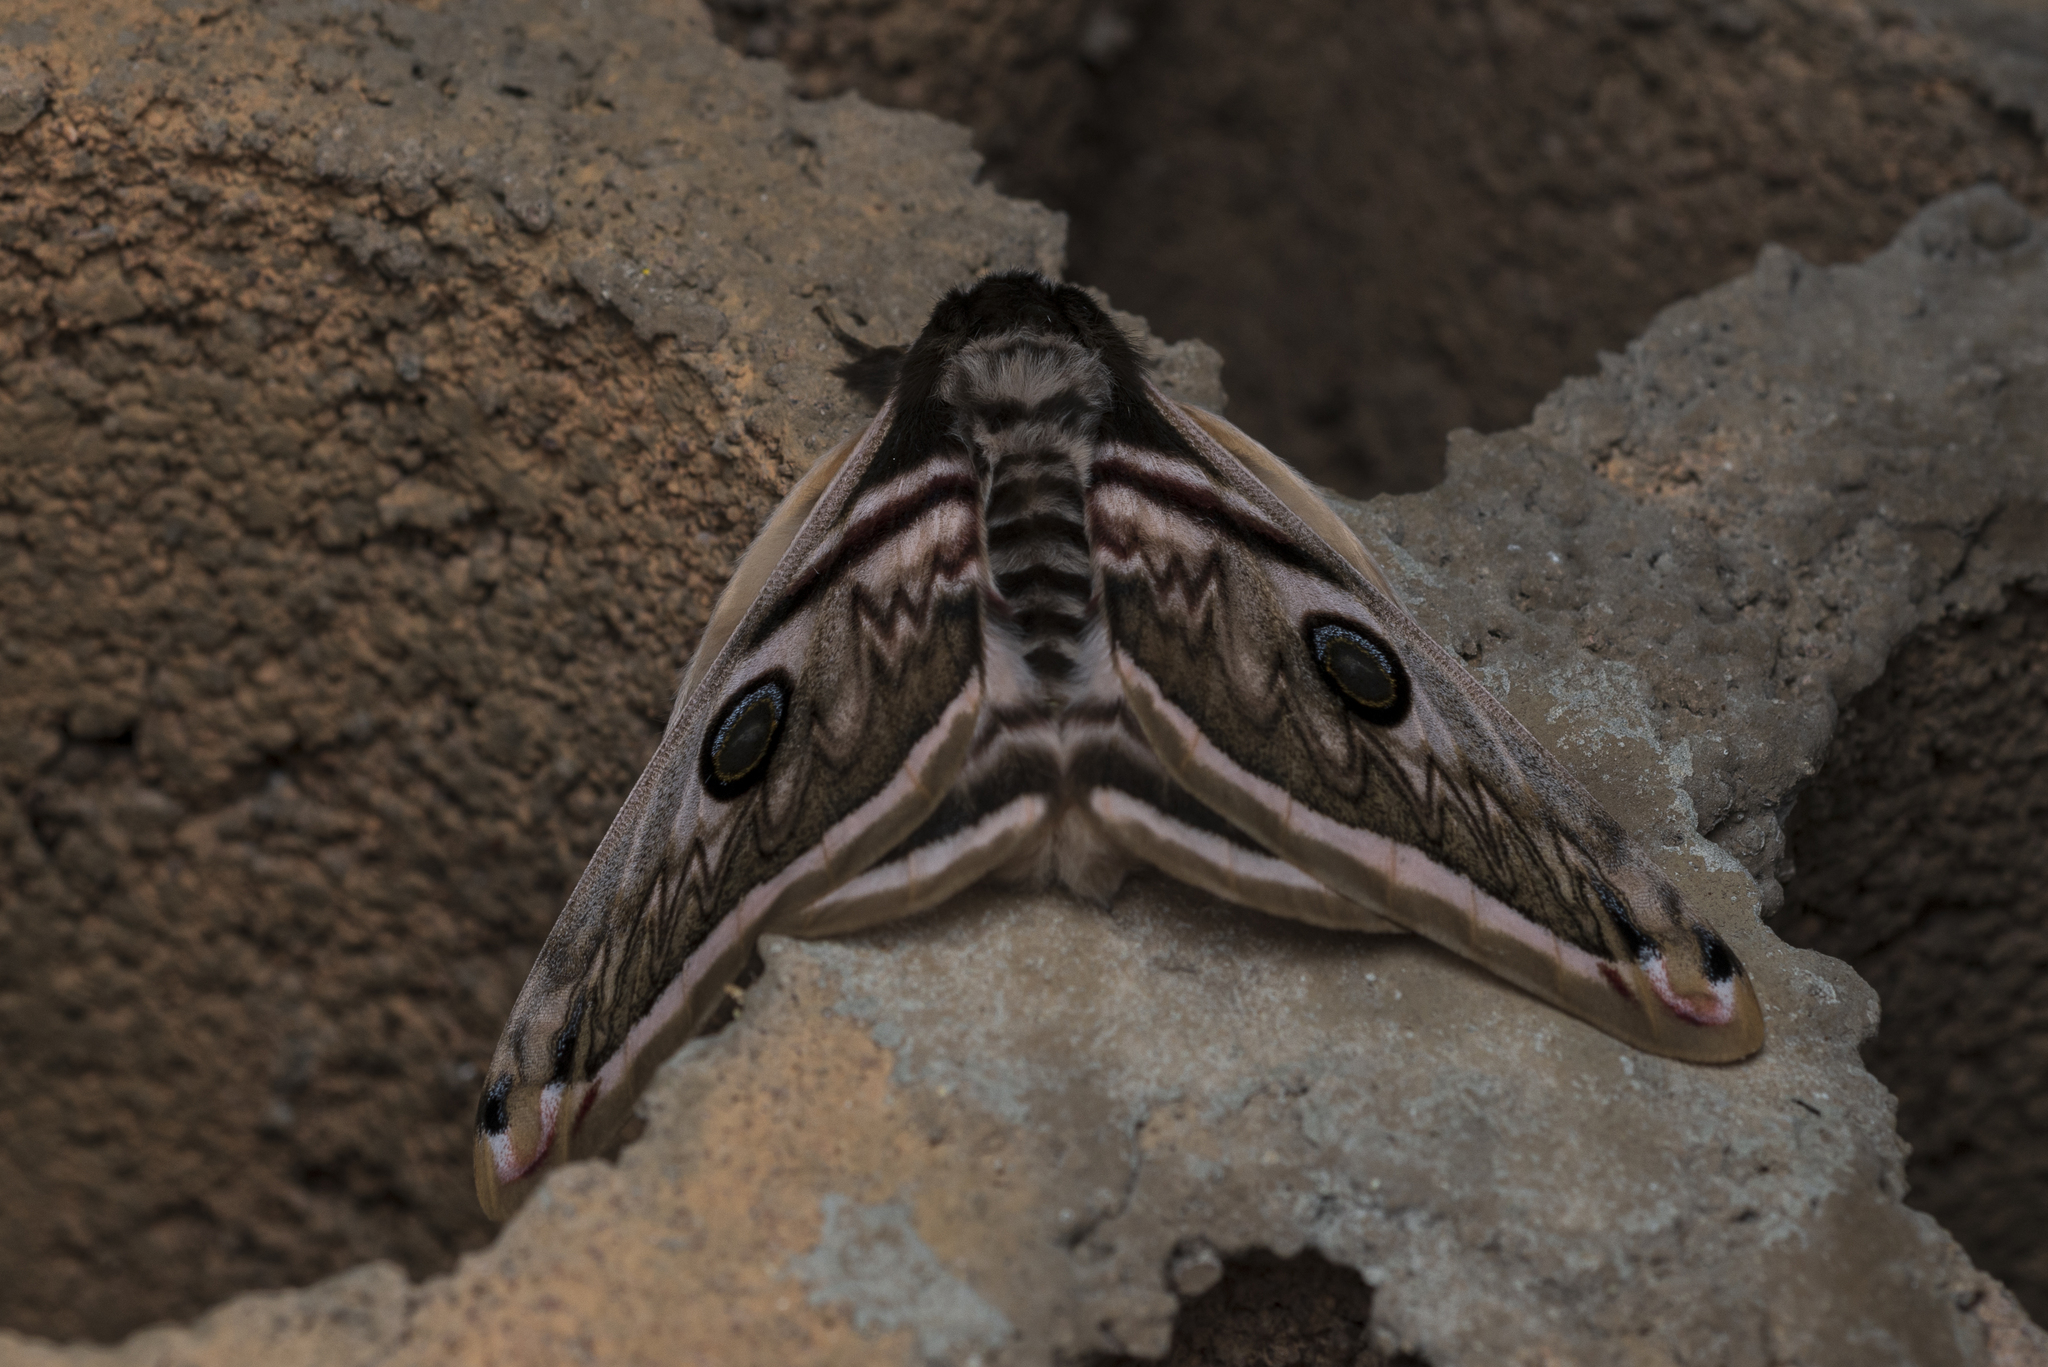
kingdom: Animalia
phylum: Arthropoda
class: Insecta
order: Lepidoptera
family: Saturniidae
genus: Saturnia
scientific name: Saturnia pyretorum
